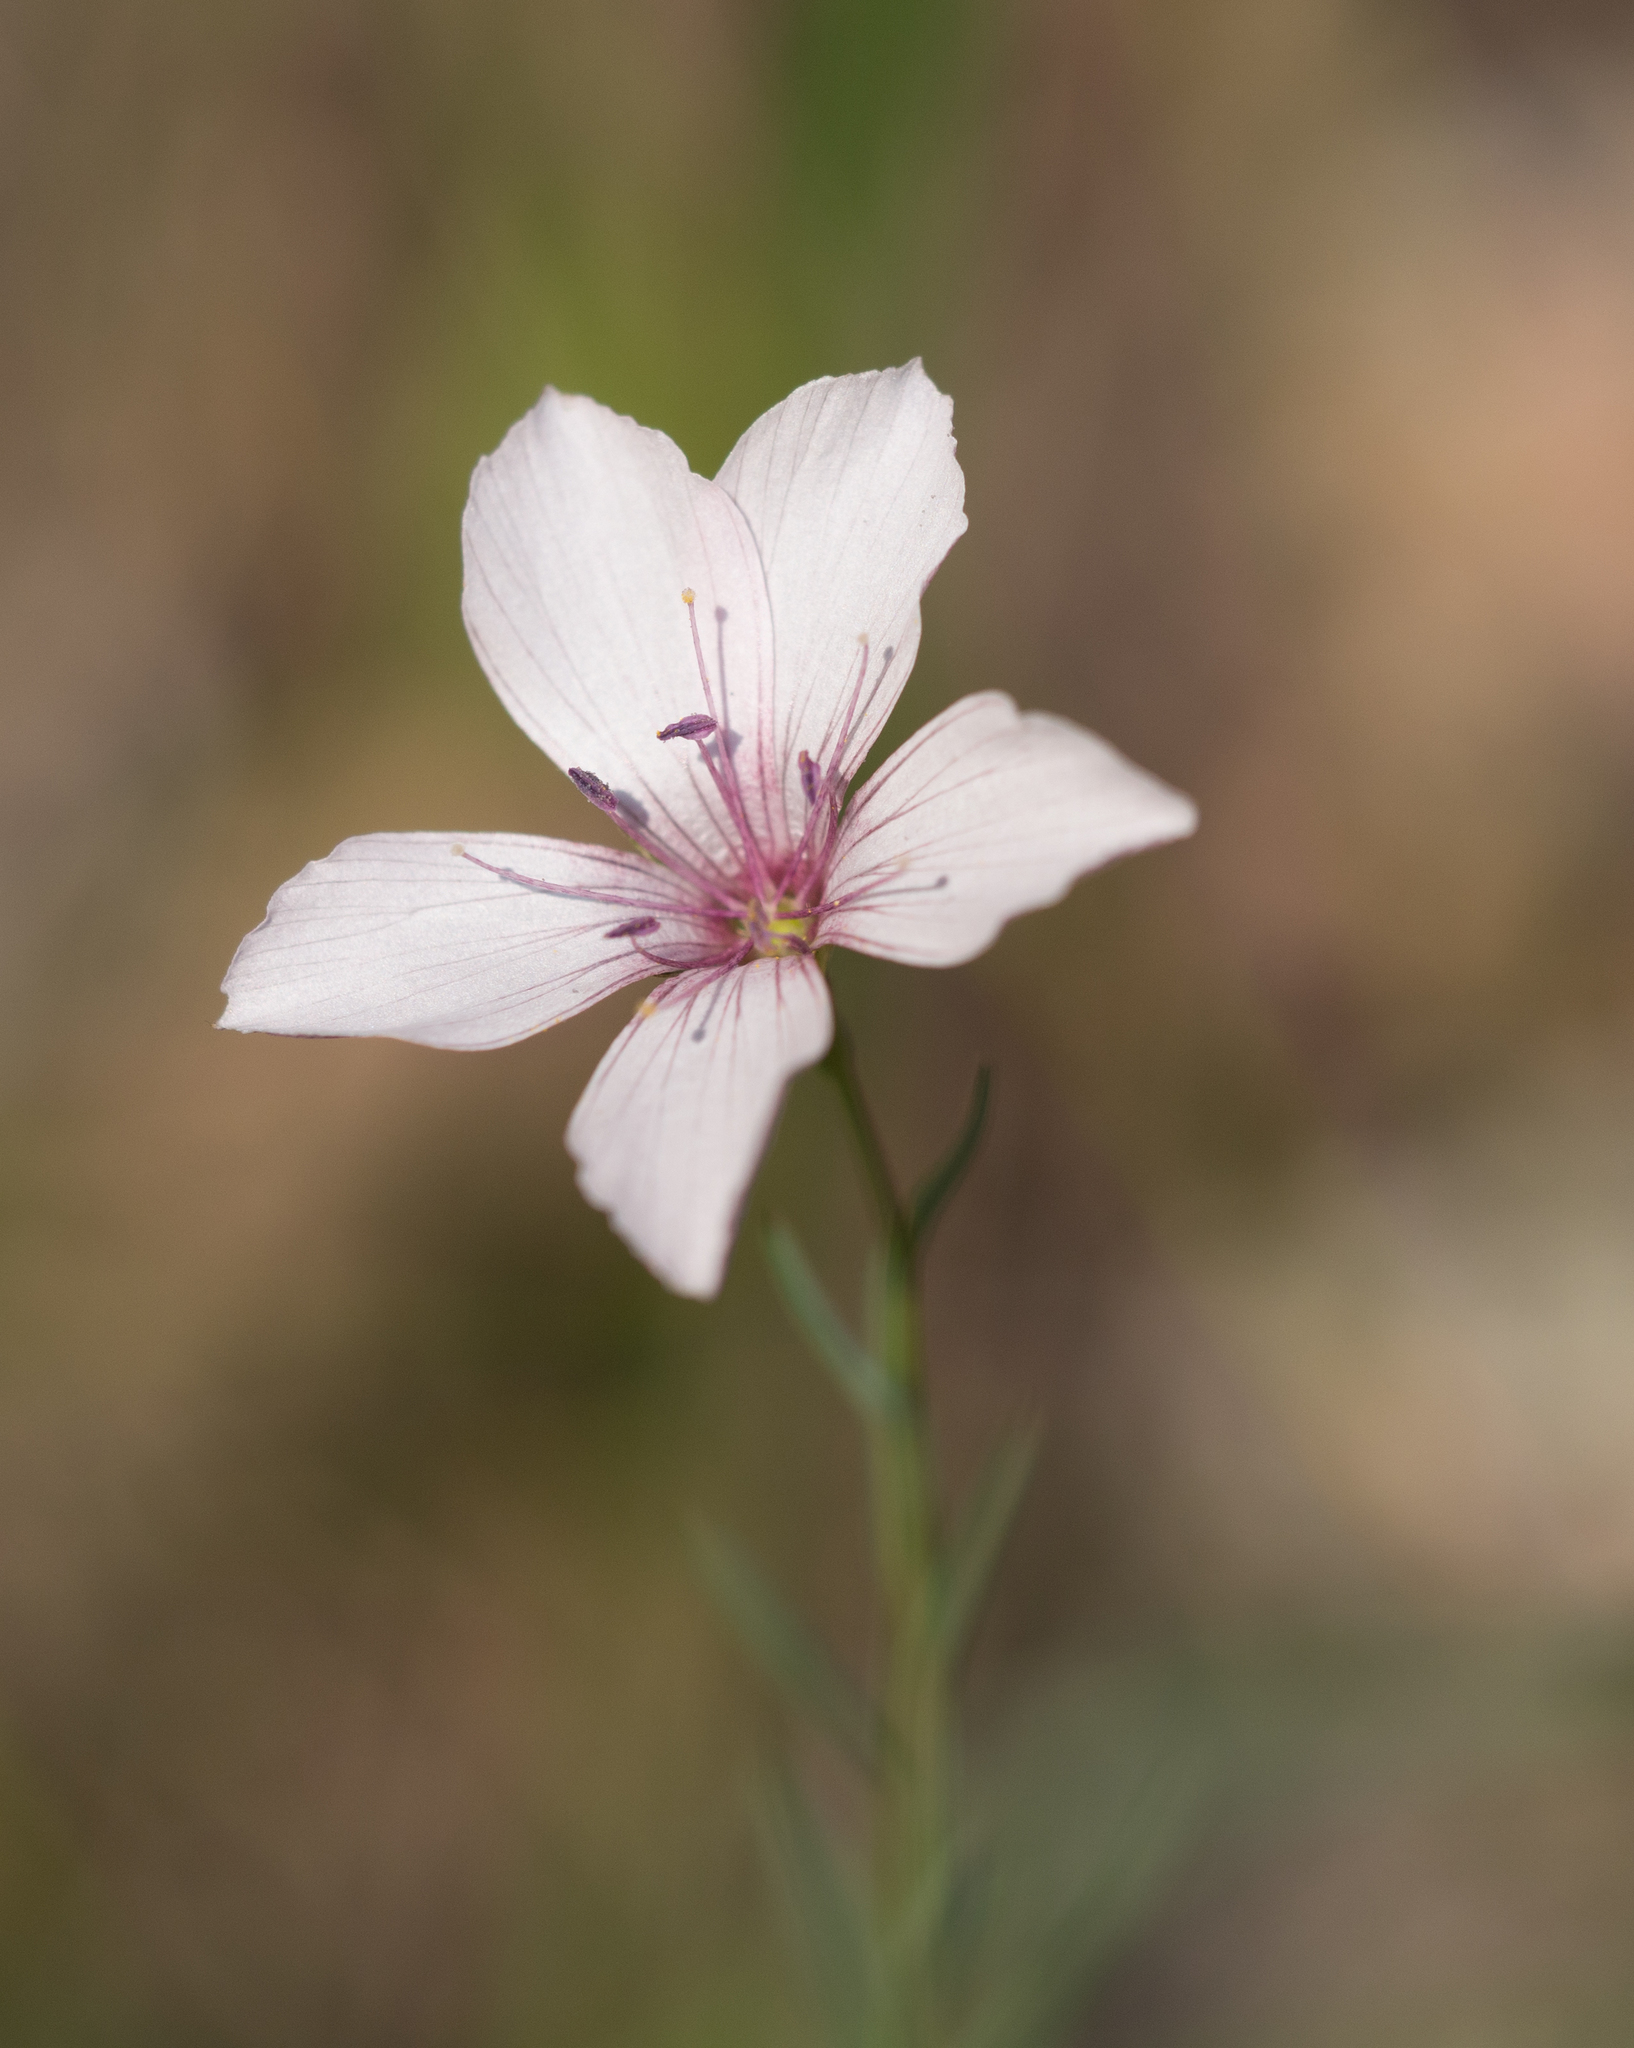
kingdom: Plantae
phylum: Tracheophyta
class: Magnoliopsida
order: Malpighiales
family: Linaceae
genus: Linum
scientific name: Linum tenuifolium
